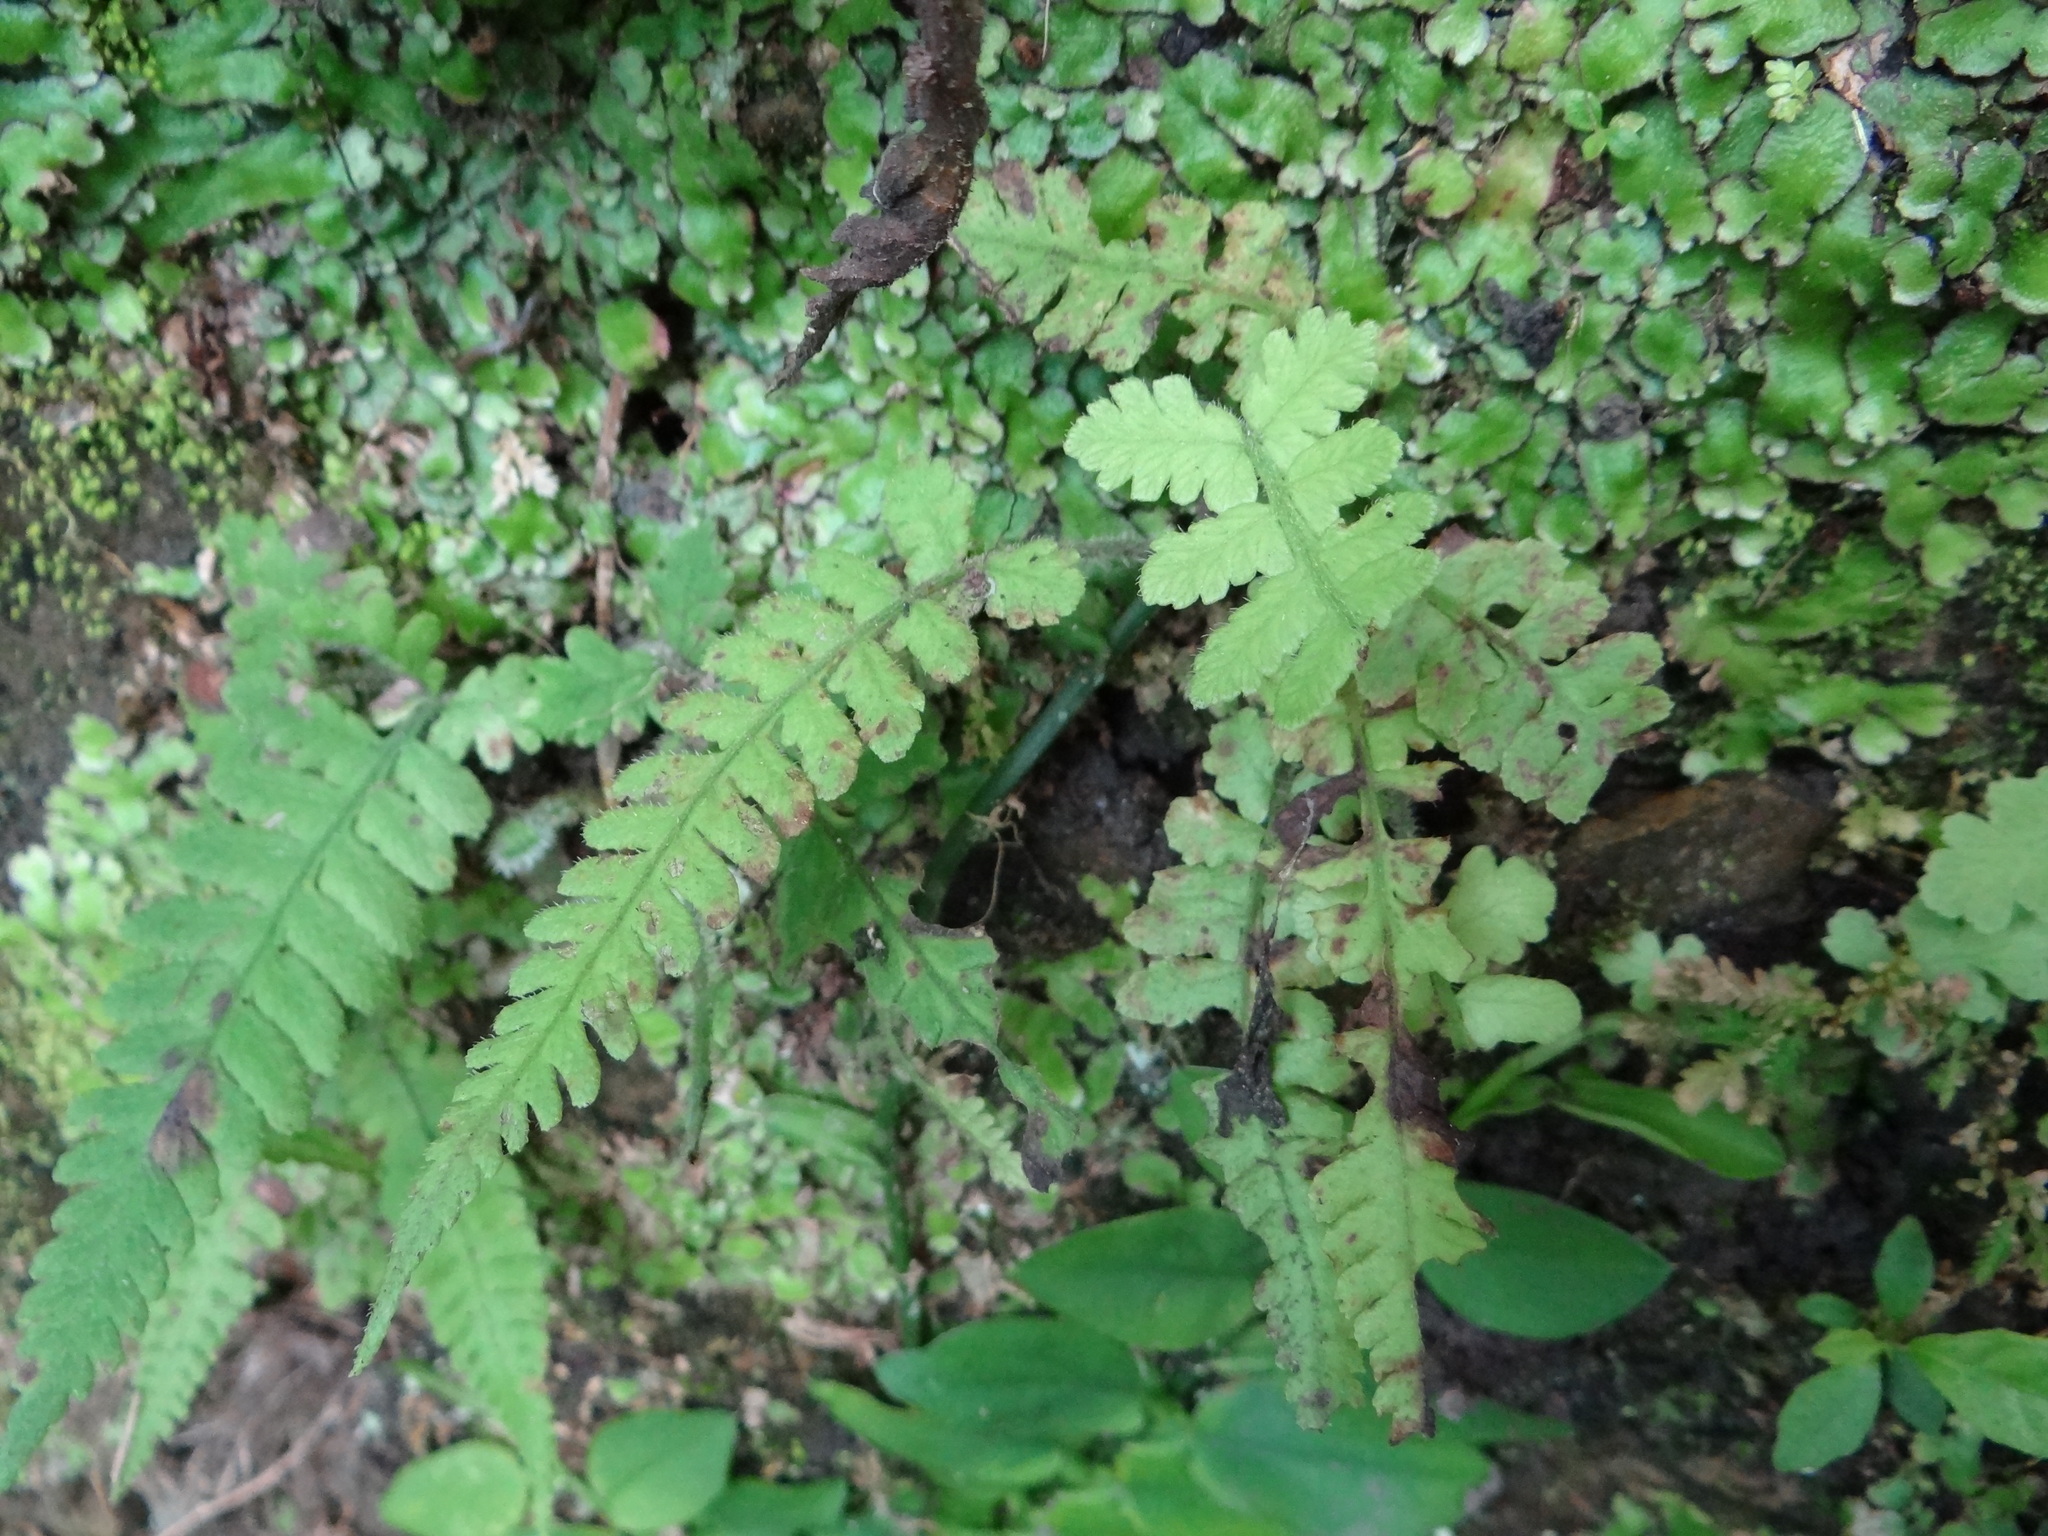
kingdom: Plantae
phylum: Tracheophyta
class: Polypodiopsida
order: Polypodiales
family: Athyriaceae
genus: Deparia
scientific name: Deparia petersenii
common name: Japanese false spleenwort
